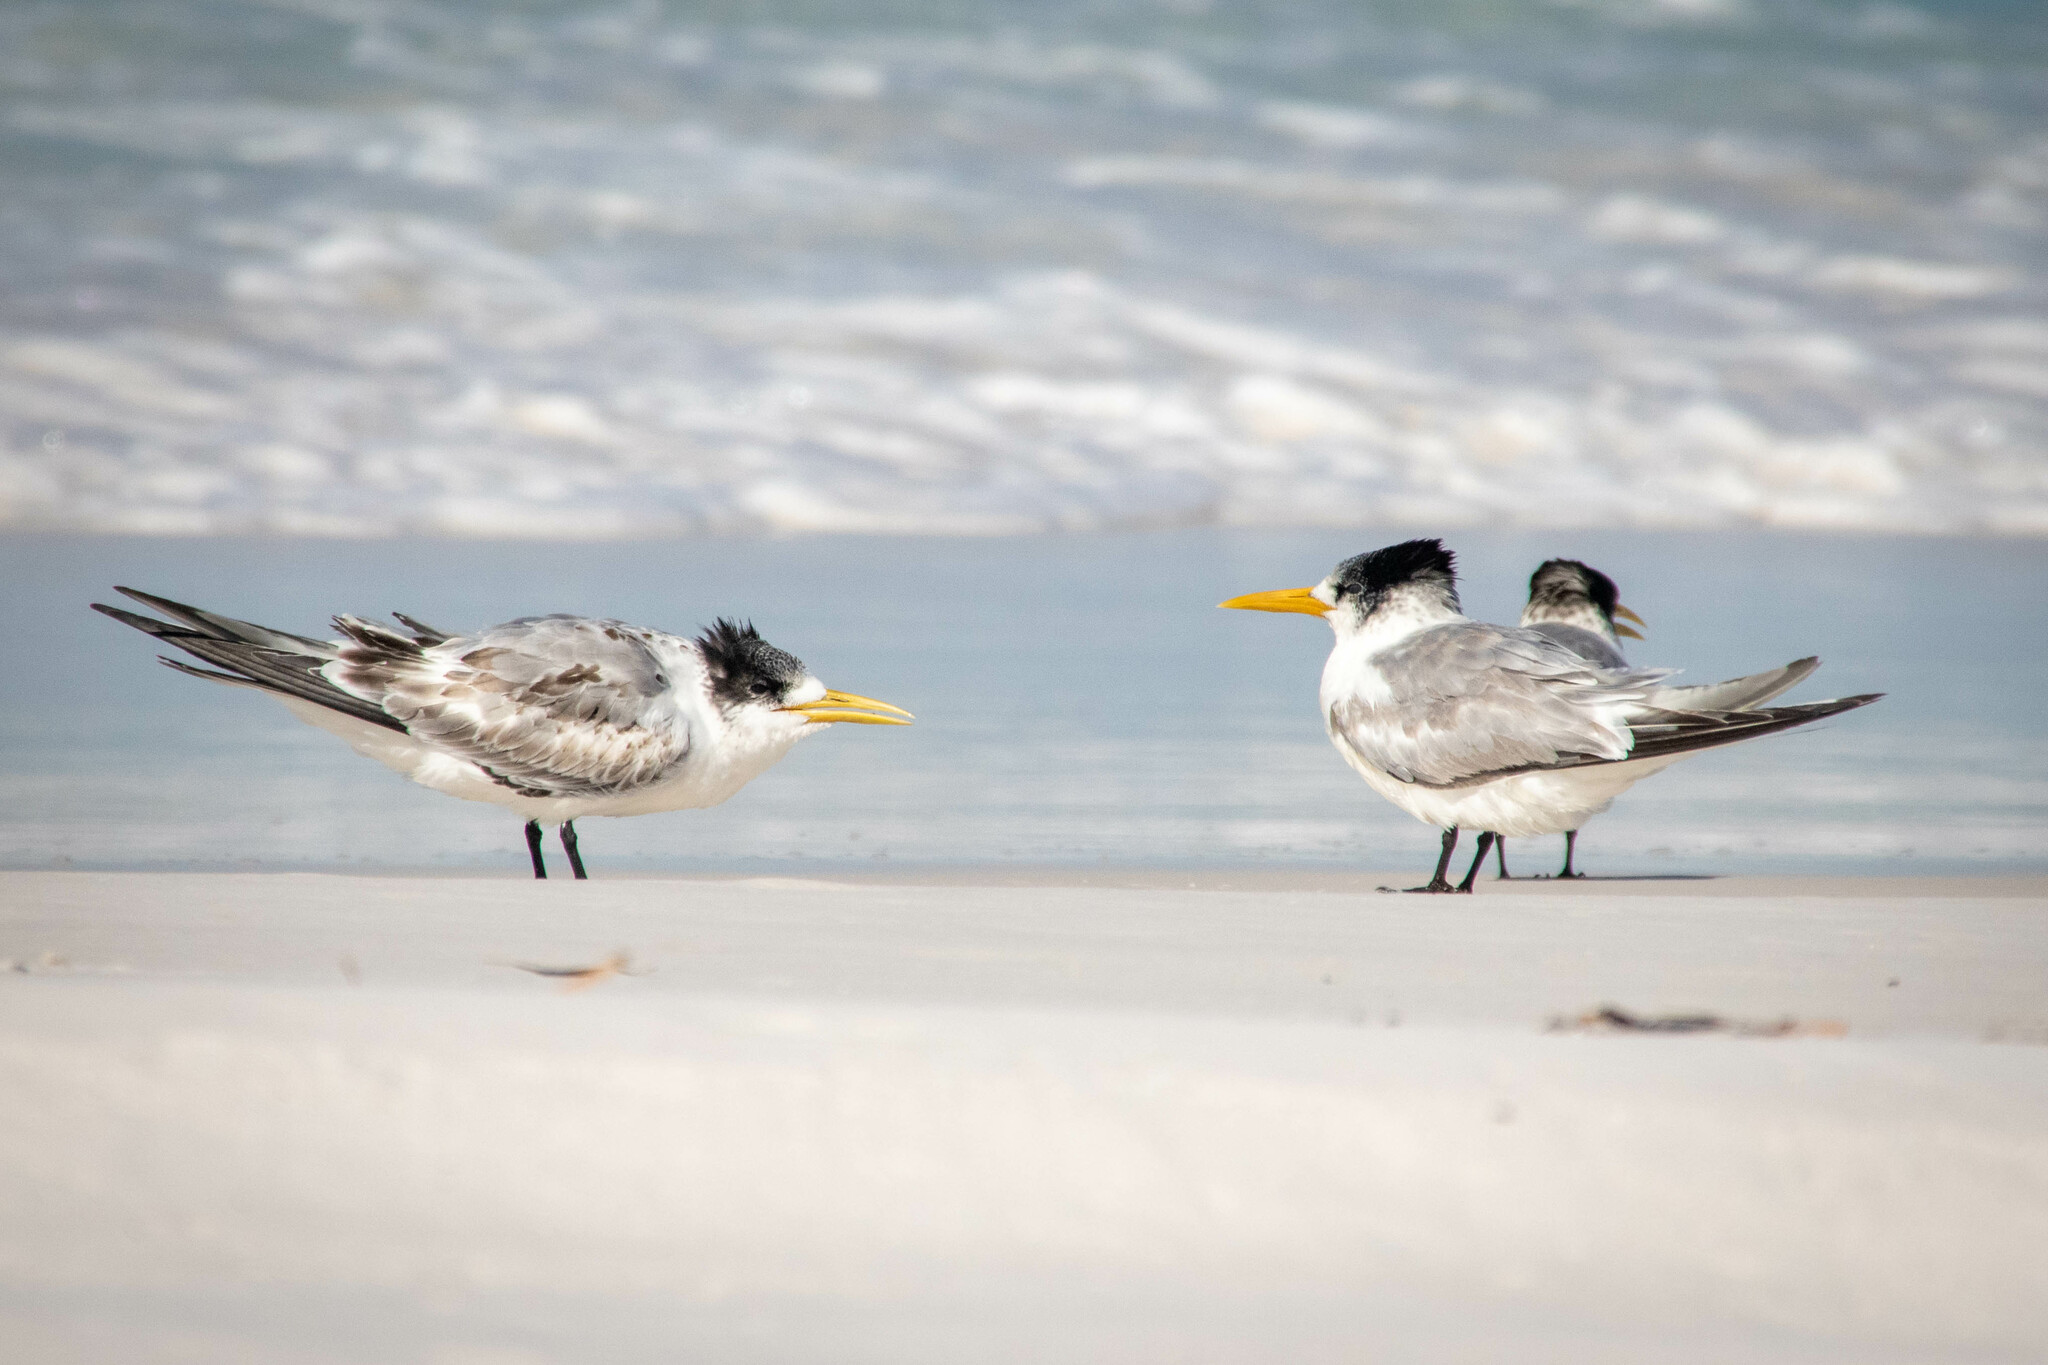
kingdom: Animalia
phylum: Chordata
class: Aves
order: Charadriiformes
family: Laridae
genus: Thalasseus
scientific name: Thalasseus bergii
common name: Greater crested tern
